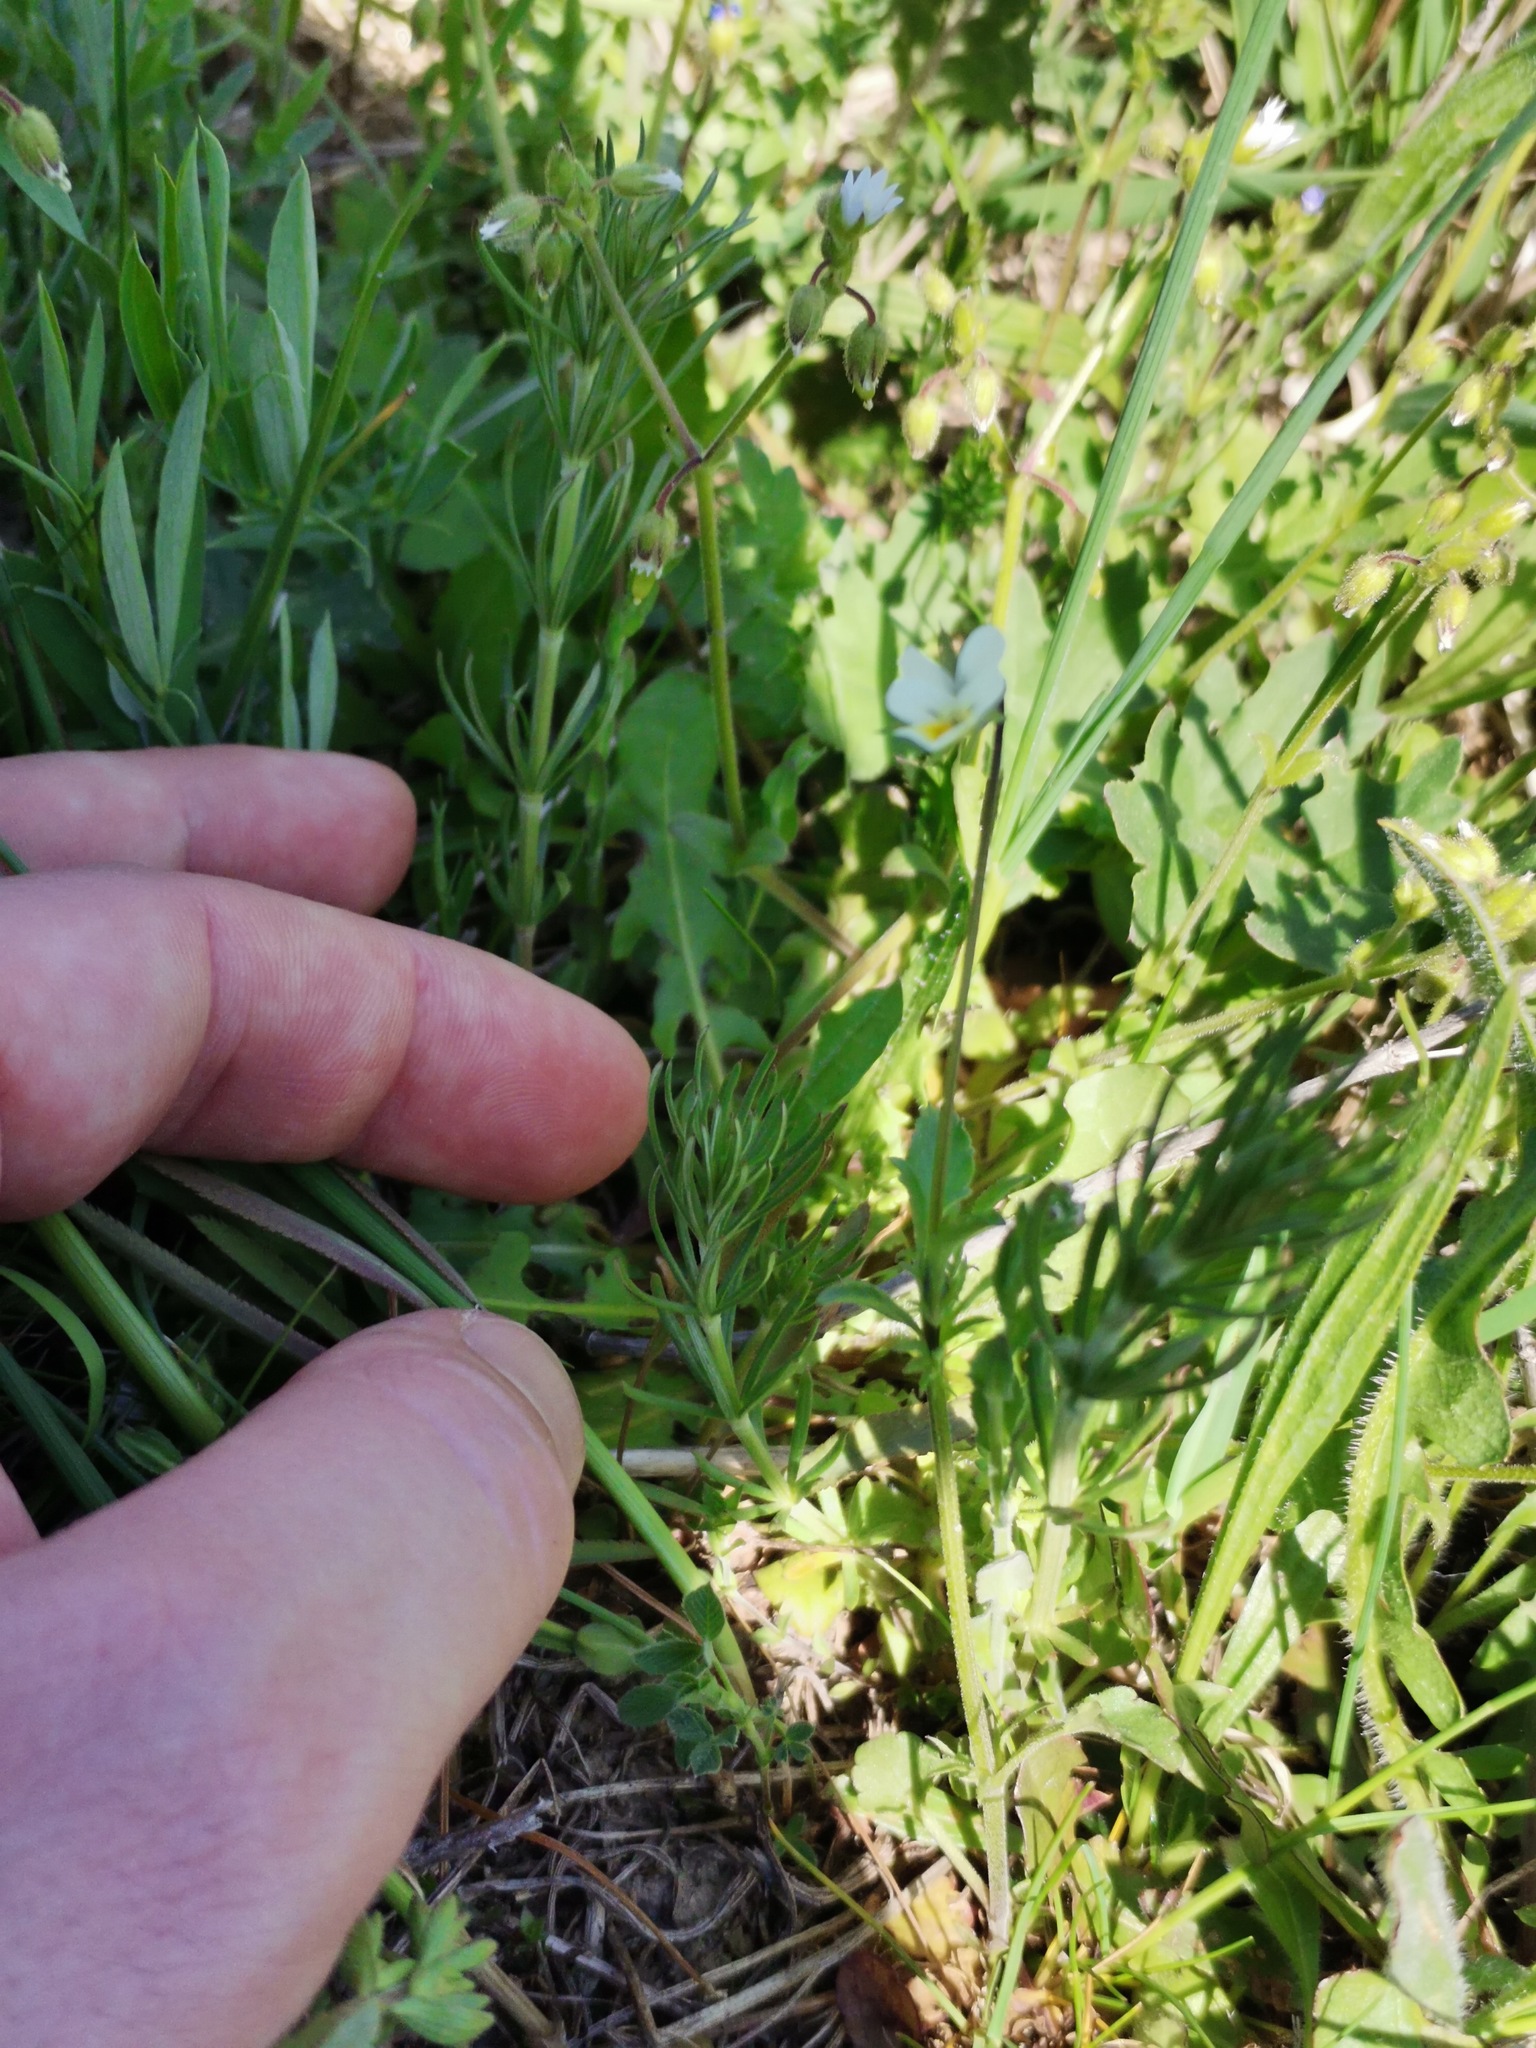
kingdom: Plantae
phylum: Tracheophyta
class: Magnoliopsida
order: Malpighiales
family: Violaceae
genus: Viola
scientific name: Viola arvensis
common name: Field pansy
